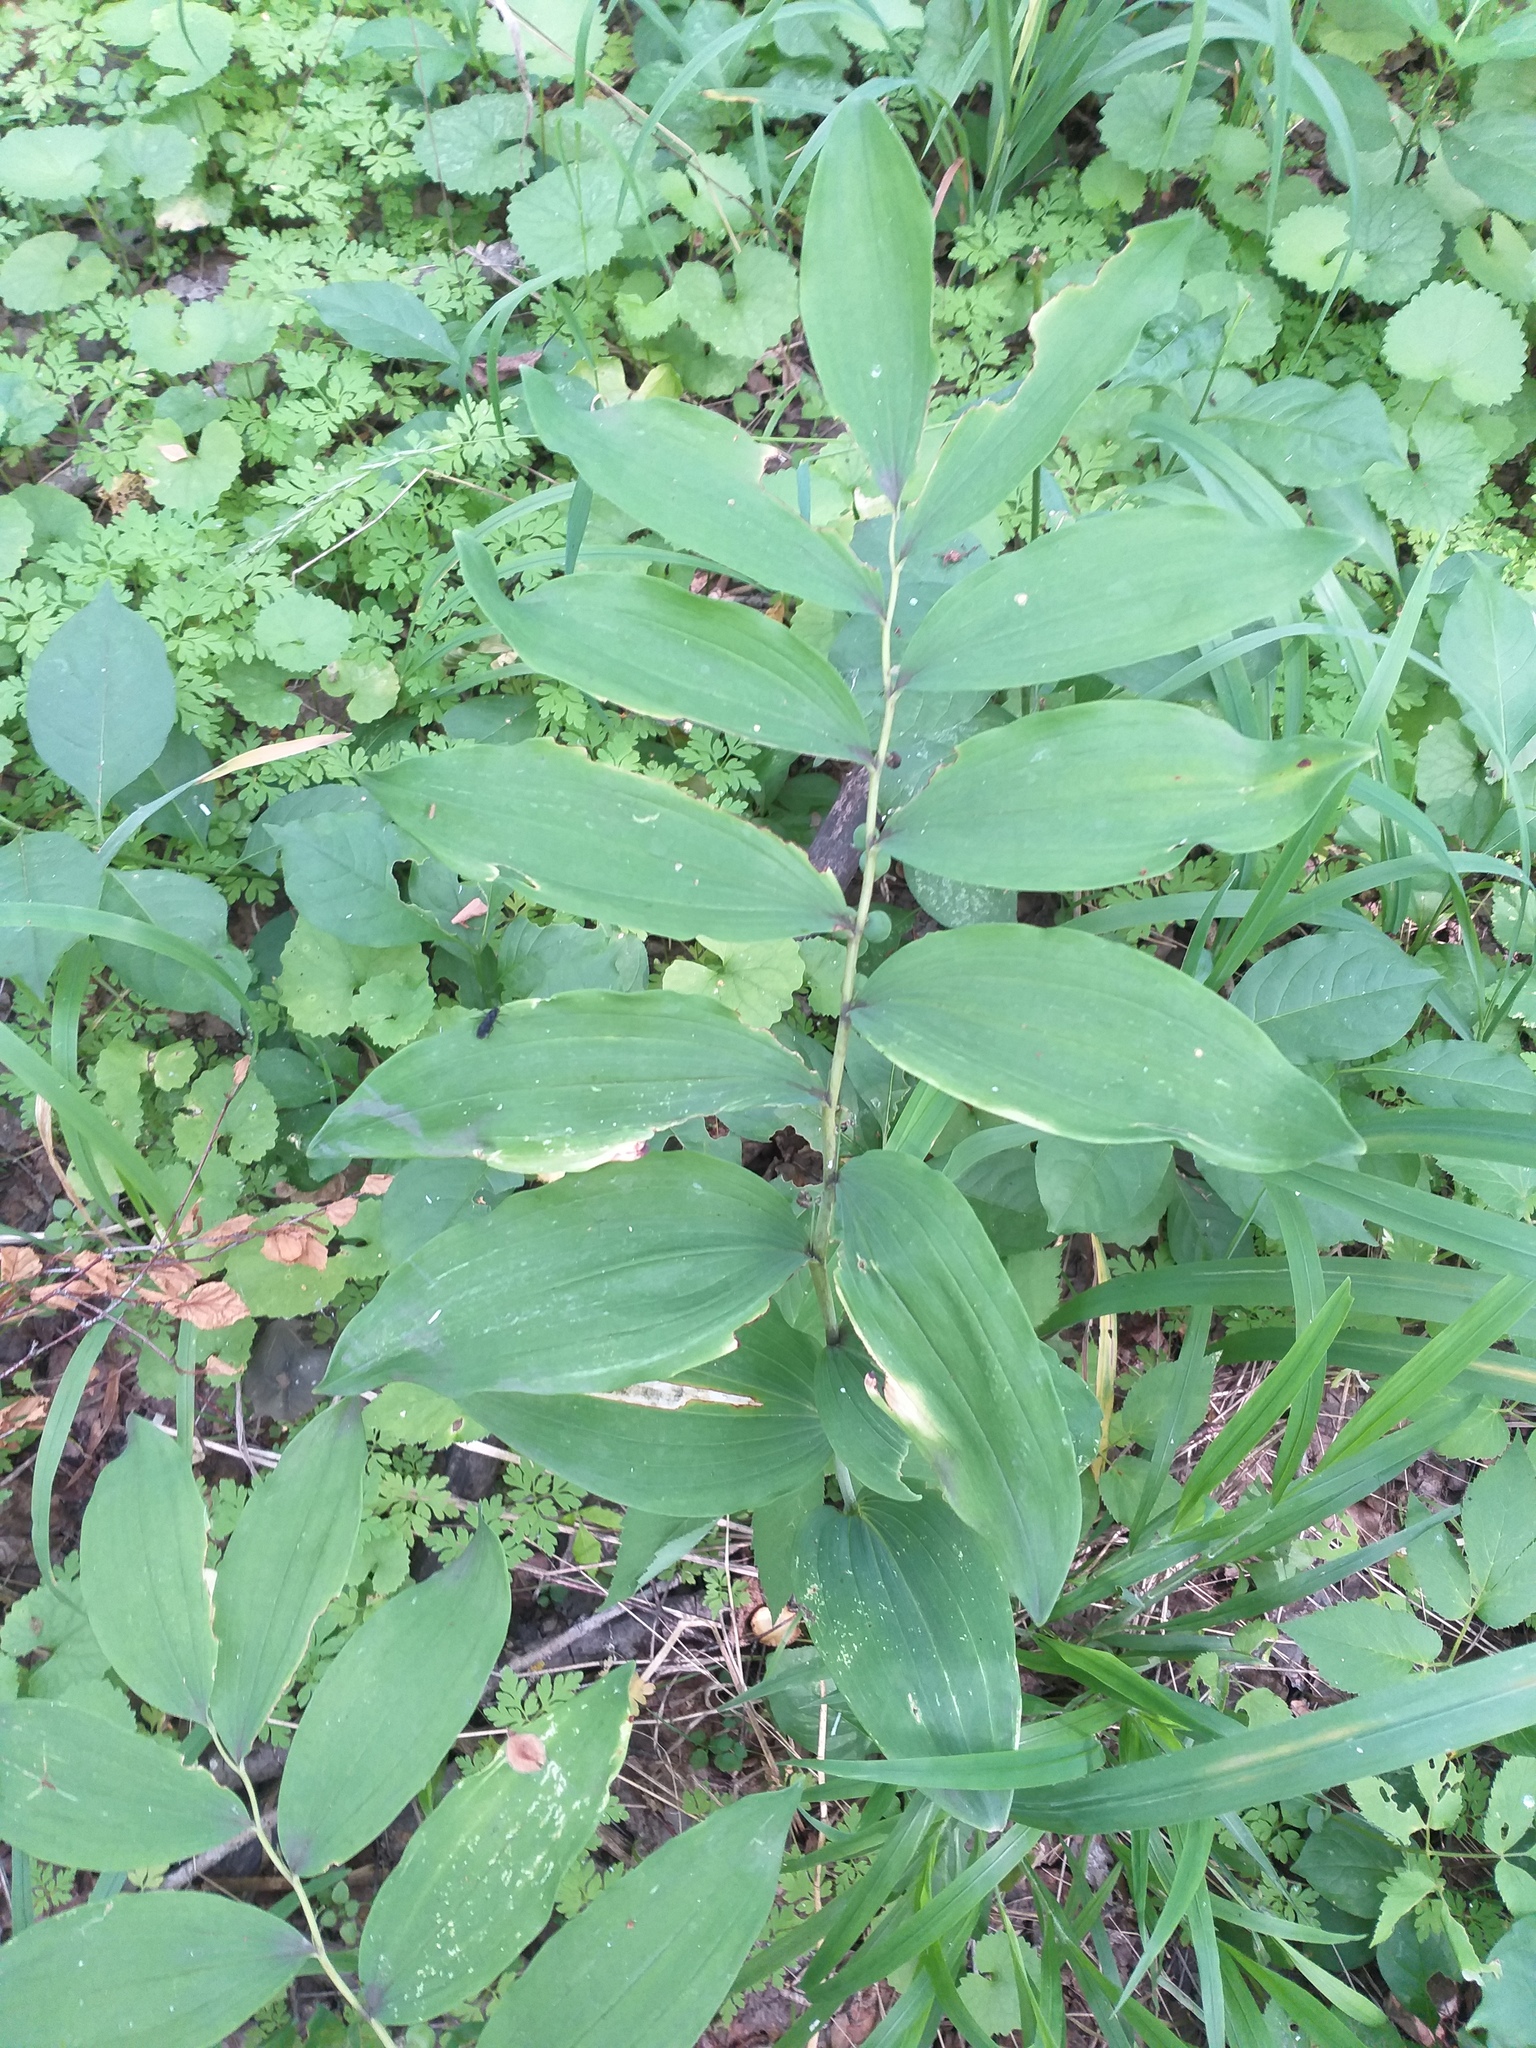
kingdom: Plantae
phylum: Tracheophyta
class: Liliopsida
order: Asparagales
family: Asparagaceae
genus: Polygonatum
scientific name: Polygonatum multiflorum
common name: Solomon's-seal
